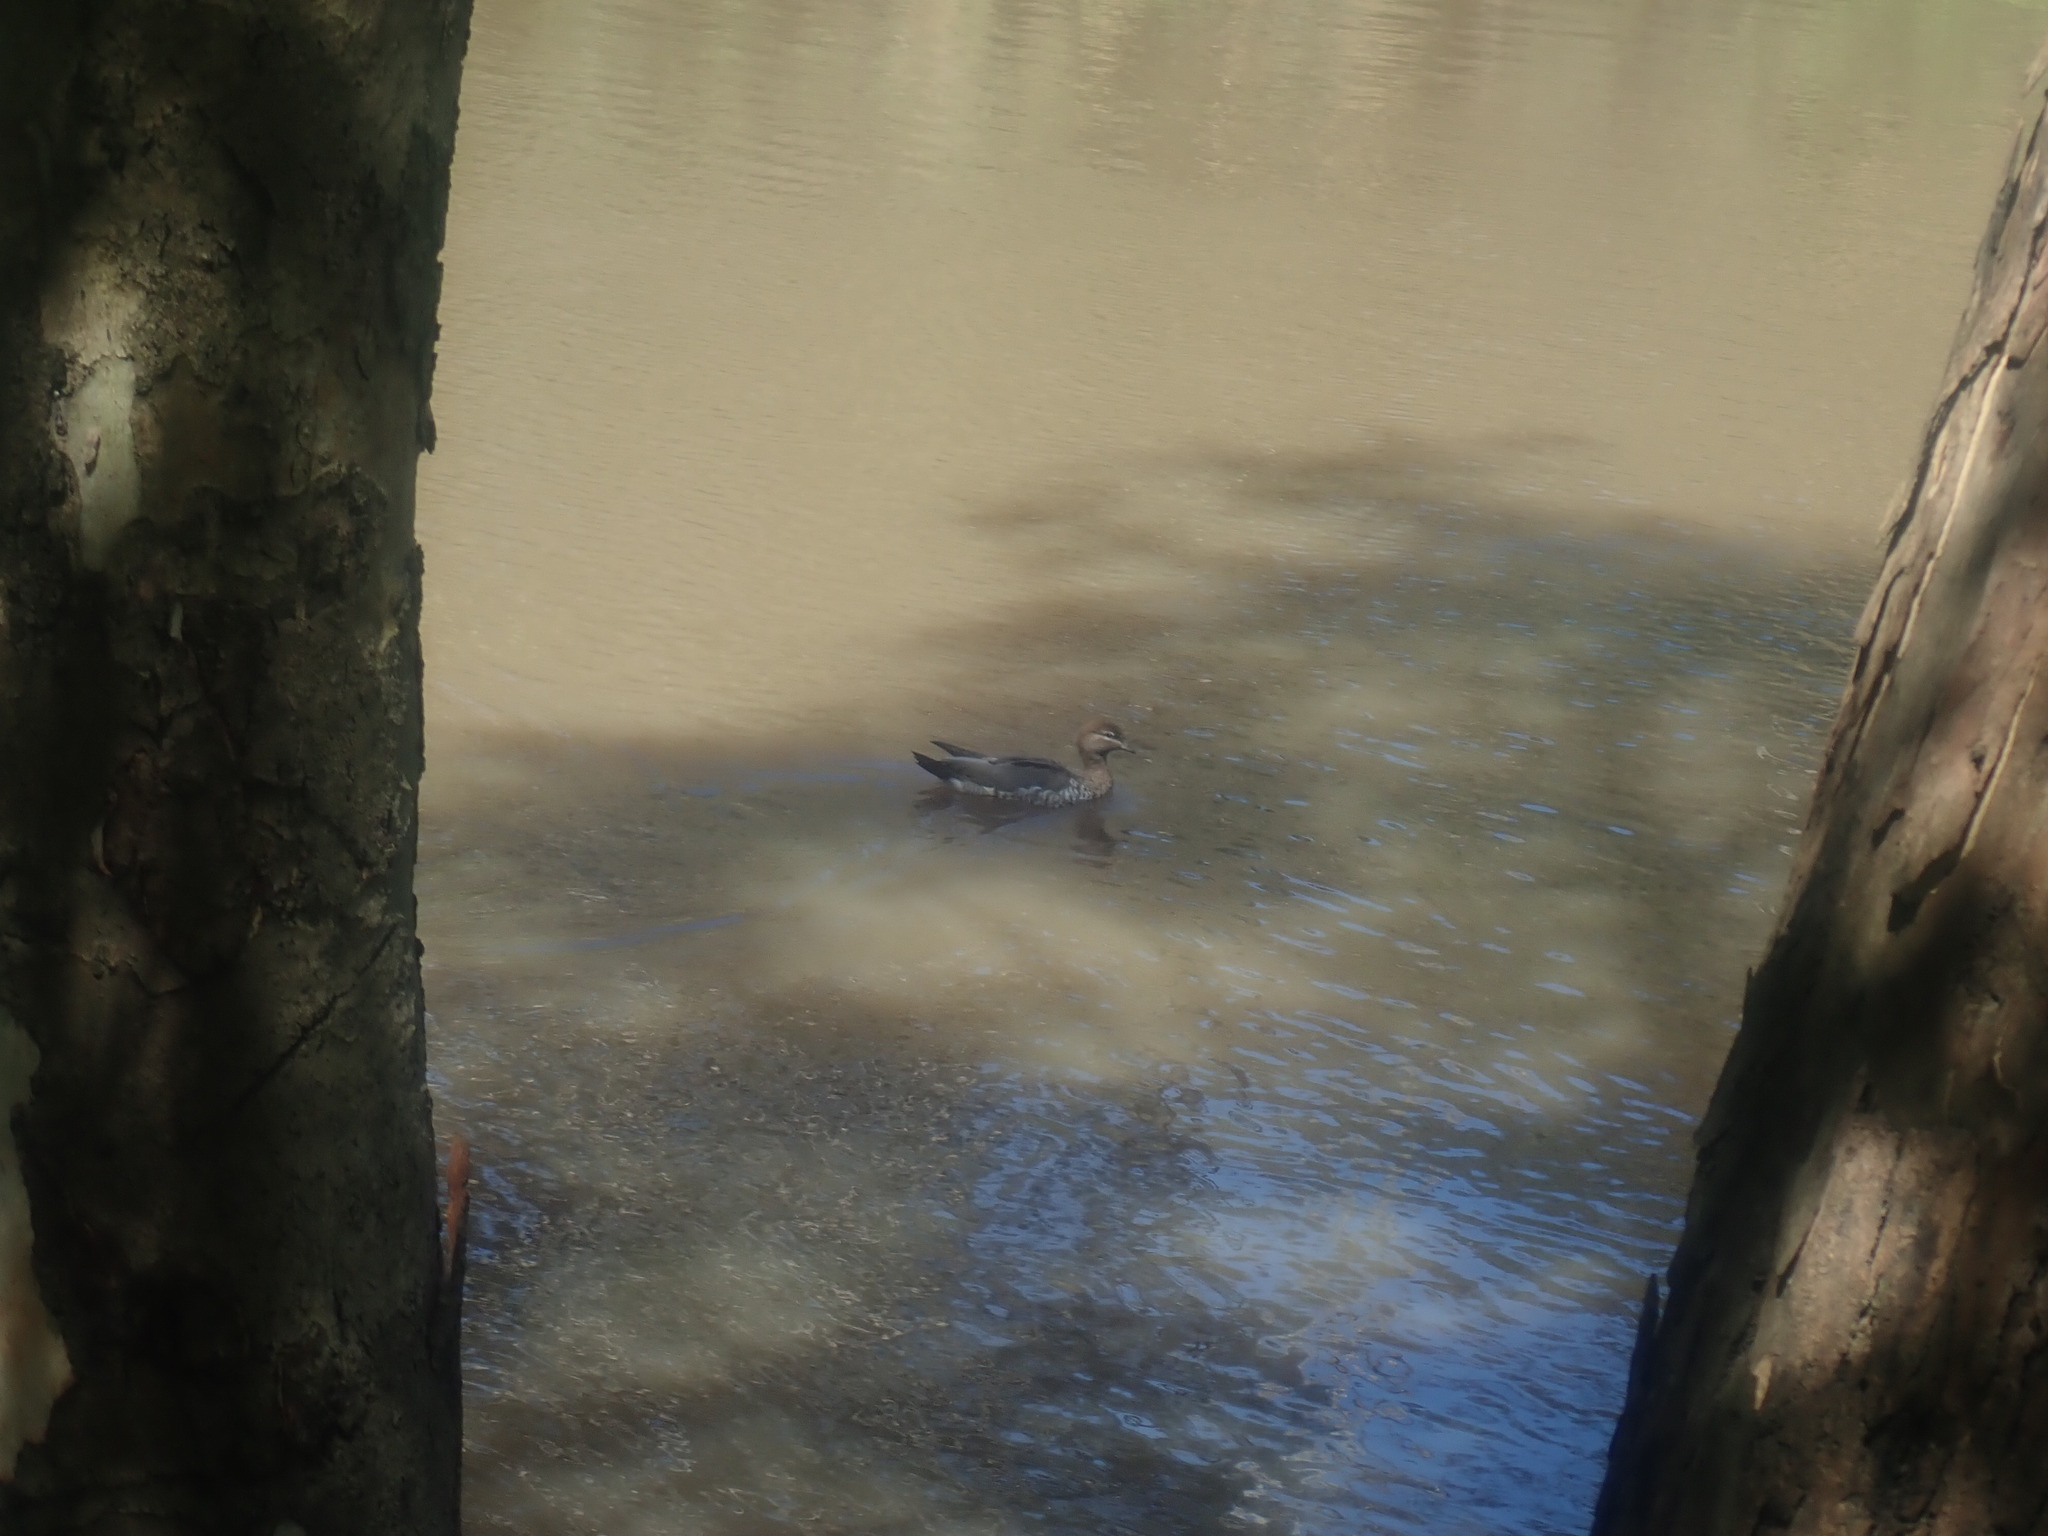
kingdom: Animalia
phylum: Chordata
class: Aves
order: Anseriformes
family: Anatidae
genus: Chenonetta
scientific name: Chenonetta jubata
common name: Maned duck
